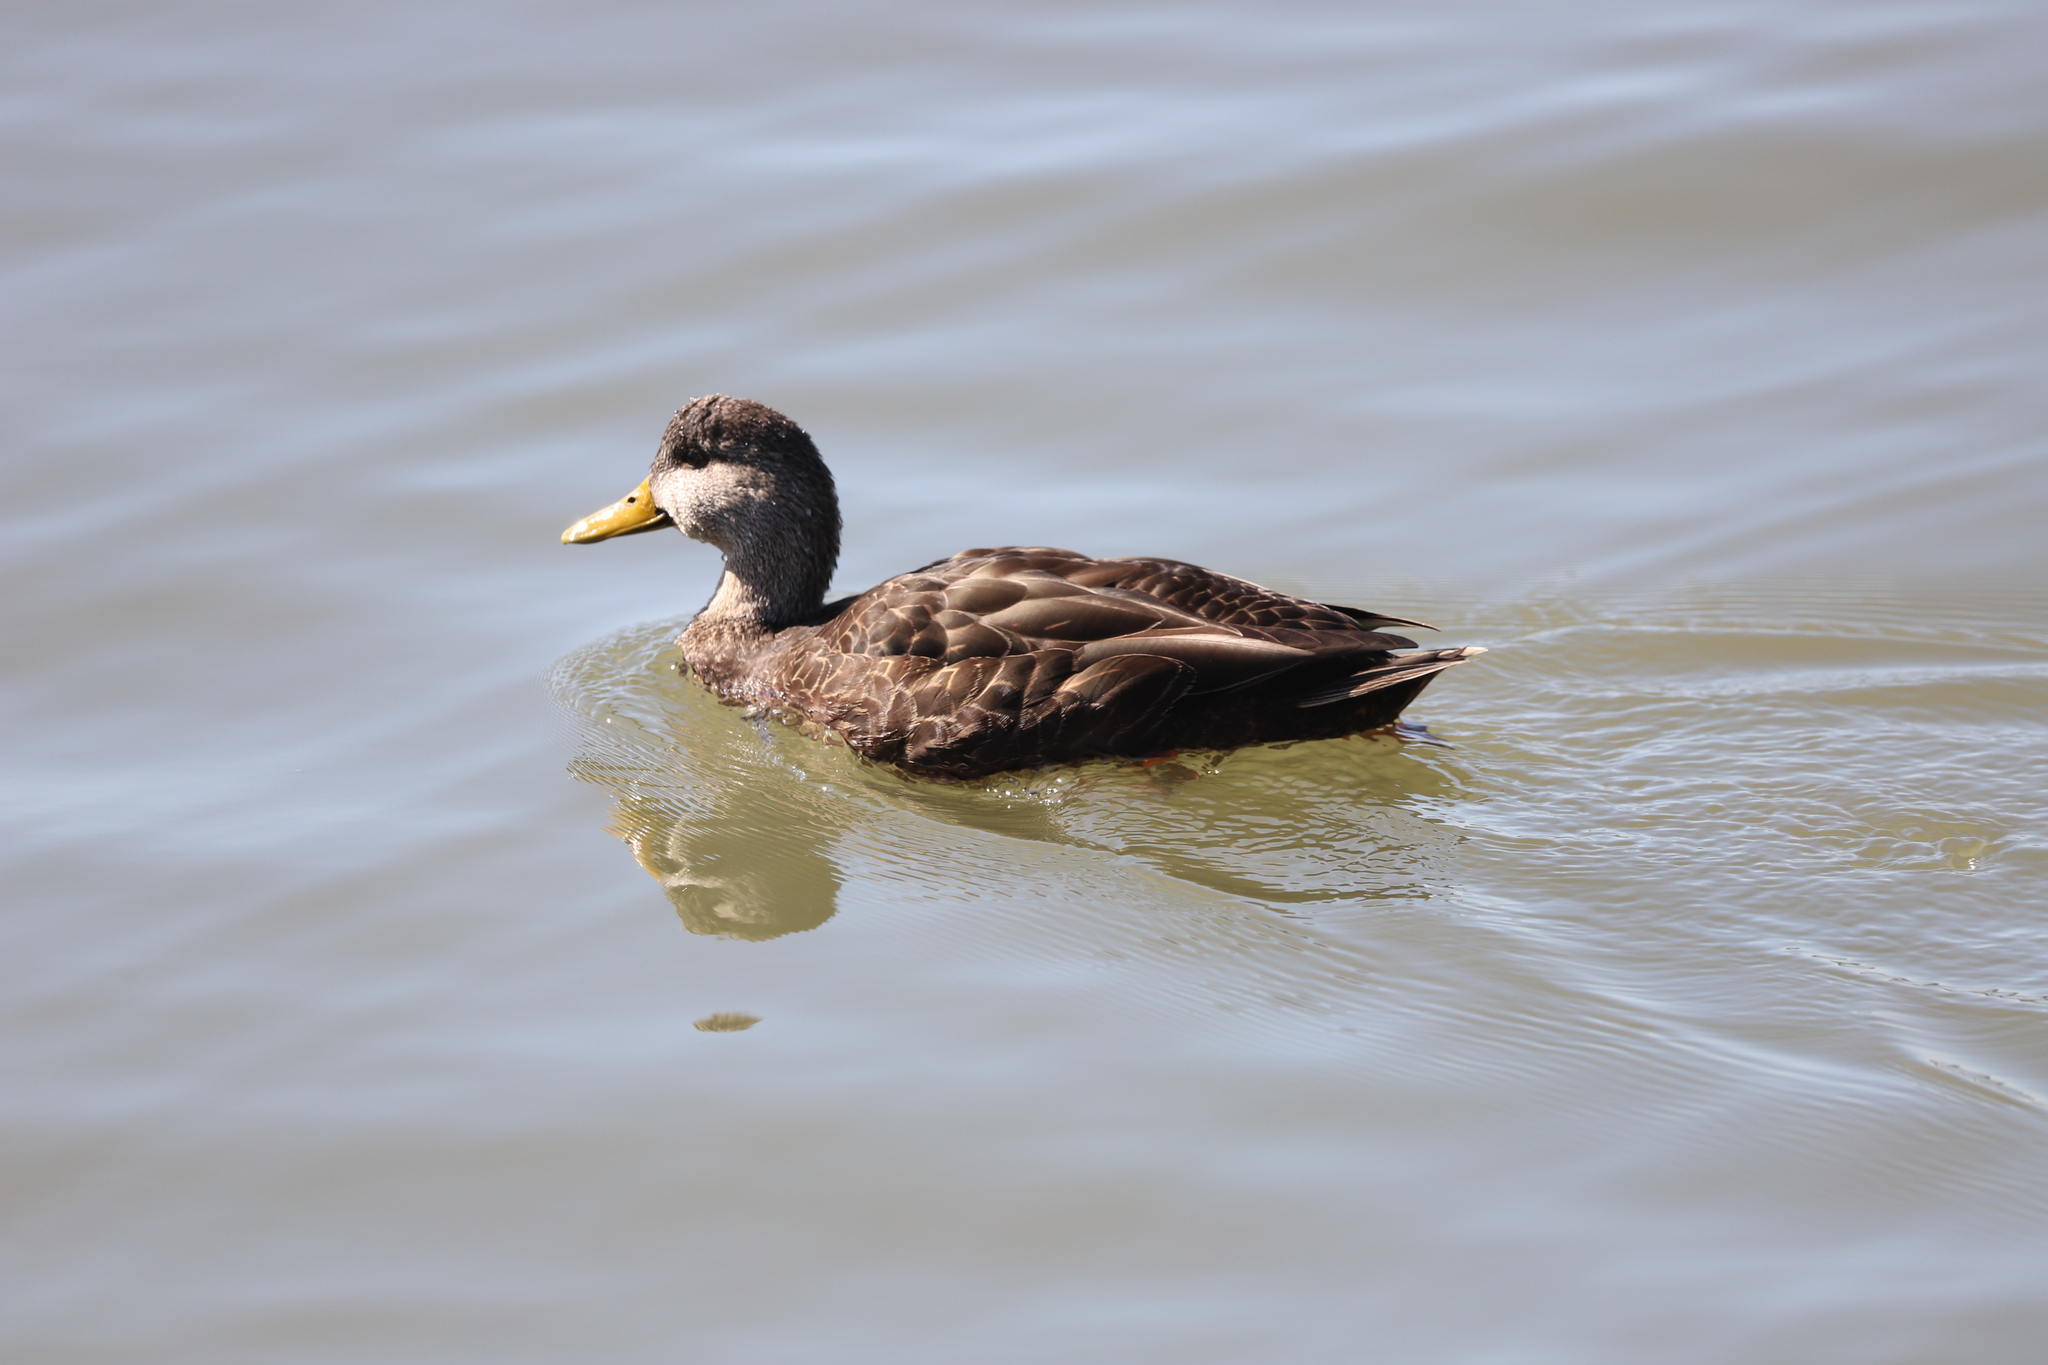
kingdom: Animalia
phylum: Chordata
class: Aves
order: Anseriformes
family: Anatidae
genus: Anas
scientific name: Anas rubripes
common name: American black duck
